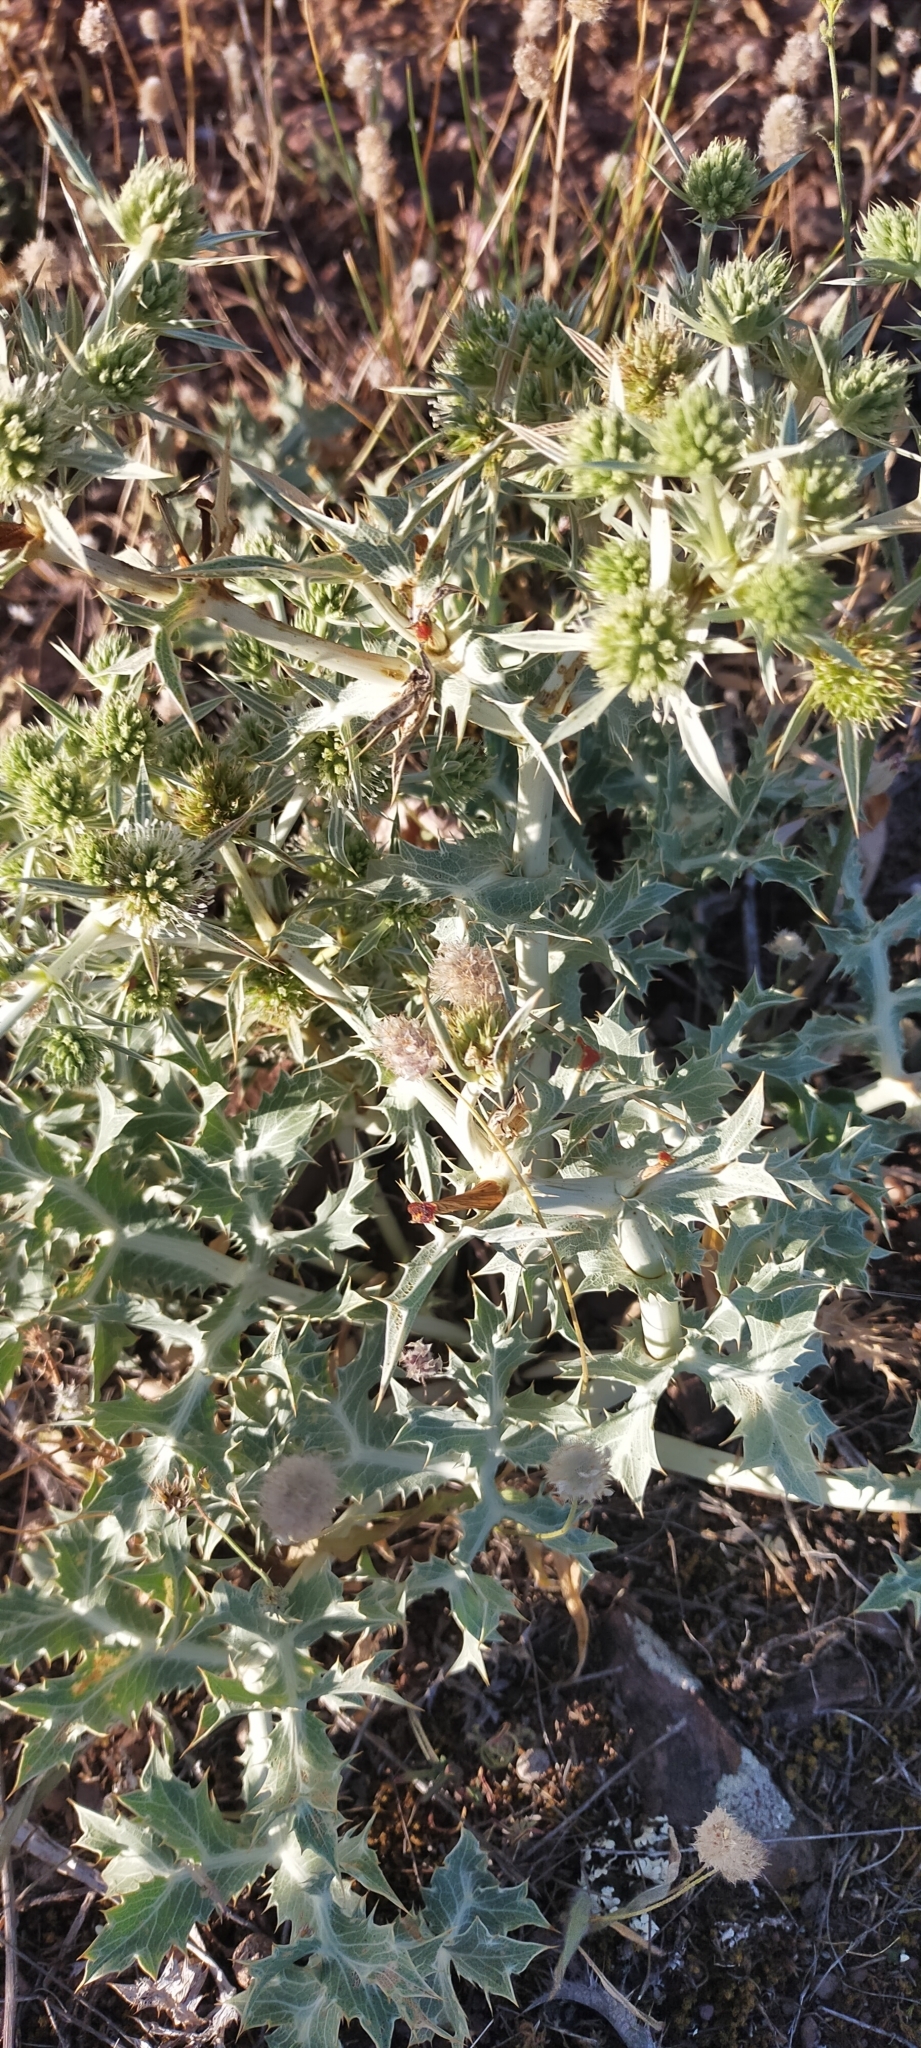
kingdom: Plantae
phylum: Tracheophyta
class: Magnoliopsida
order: Apiales
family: Apiaceae
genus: Eryngium
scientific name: Eryngium campestre
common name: Field eryngo
